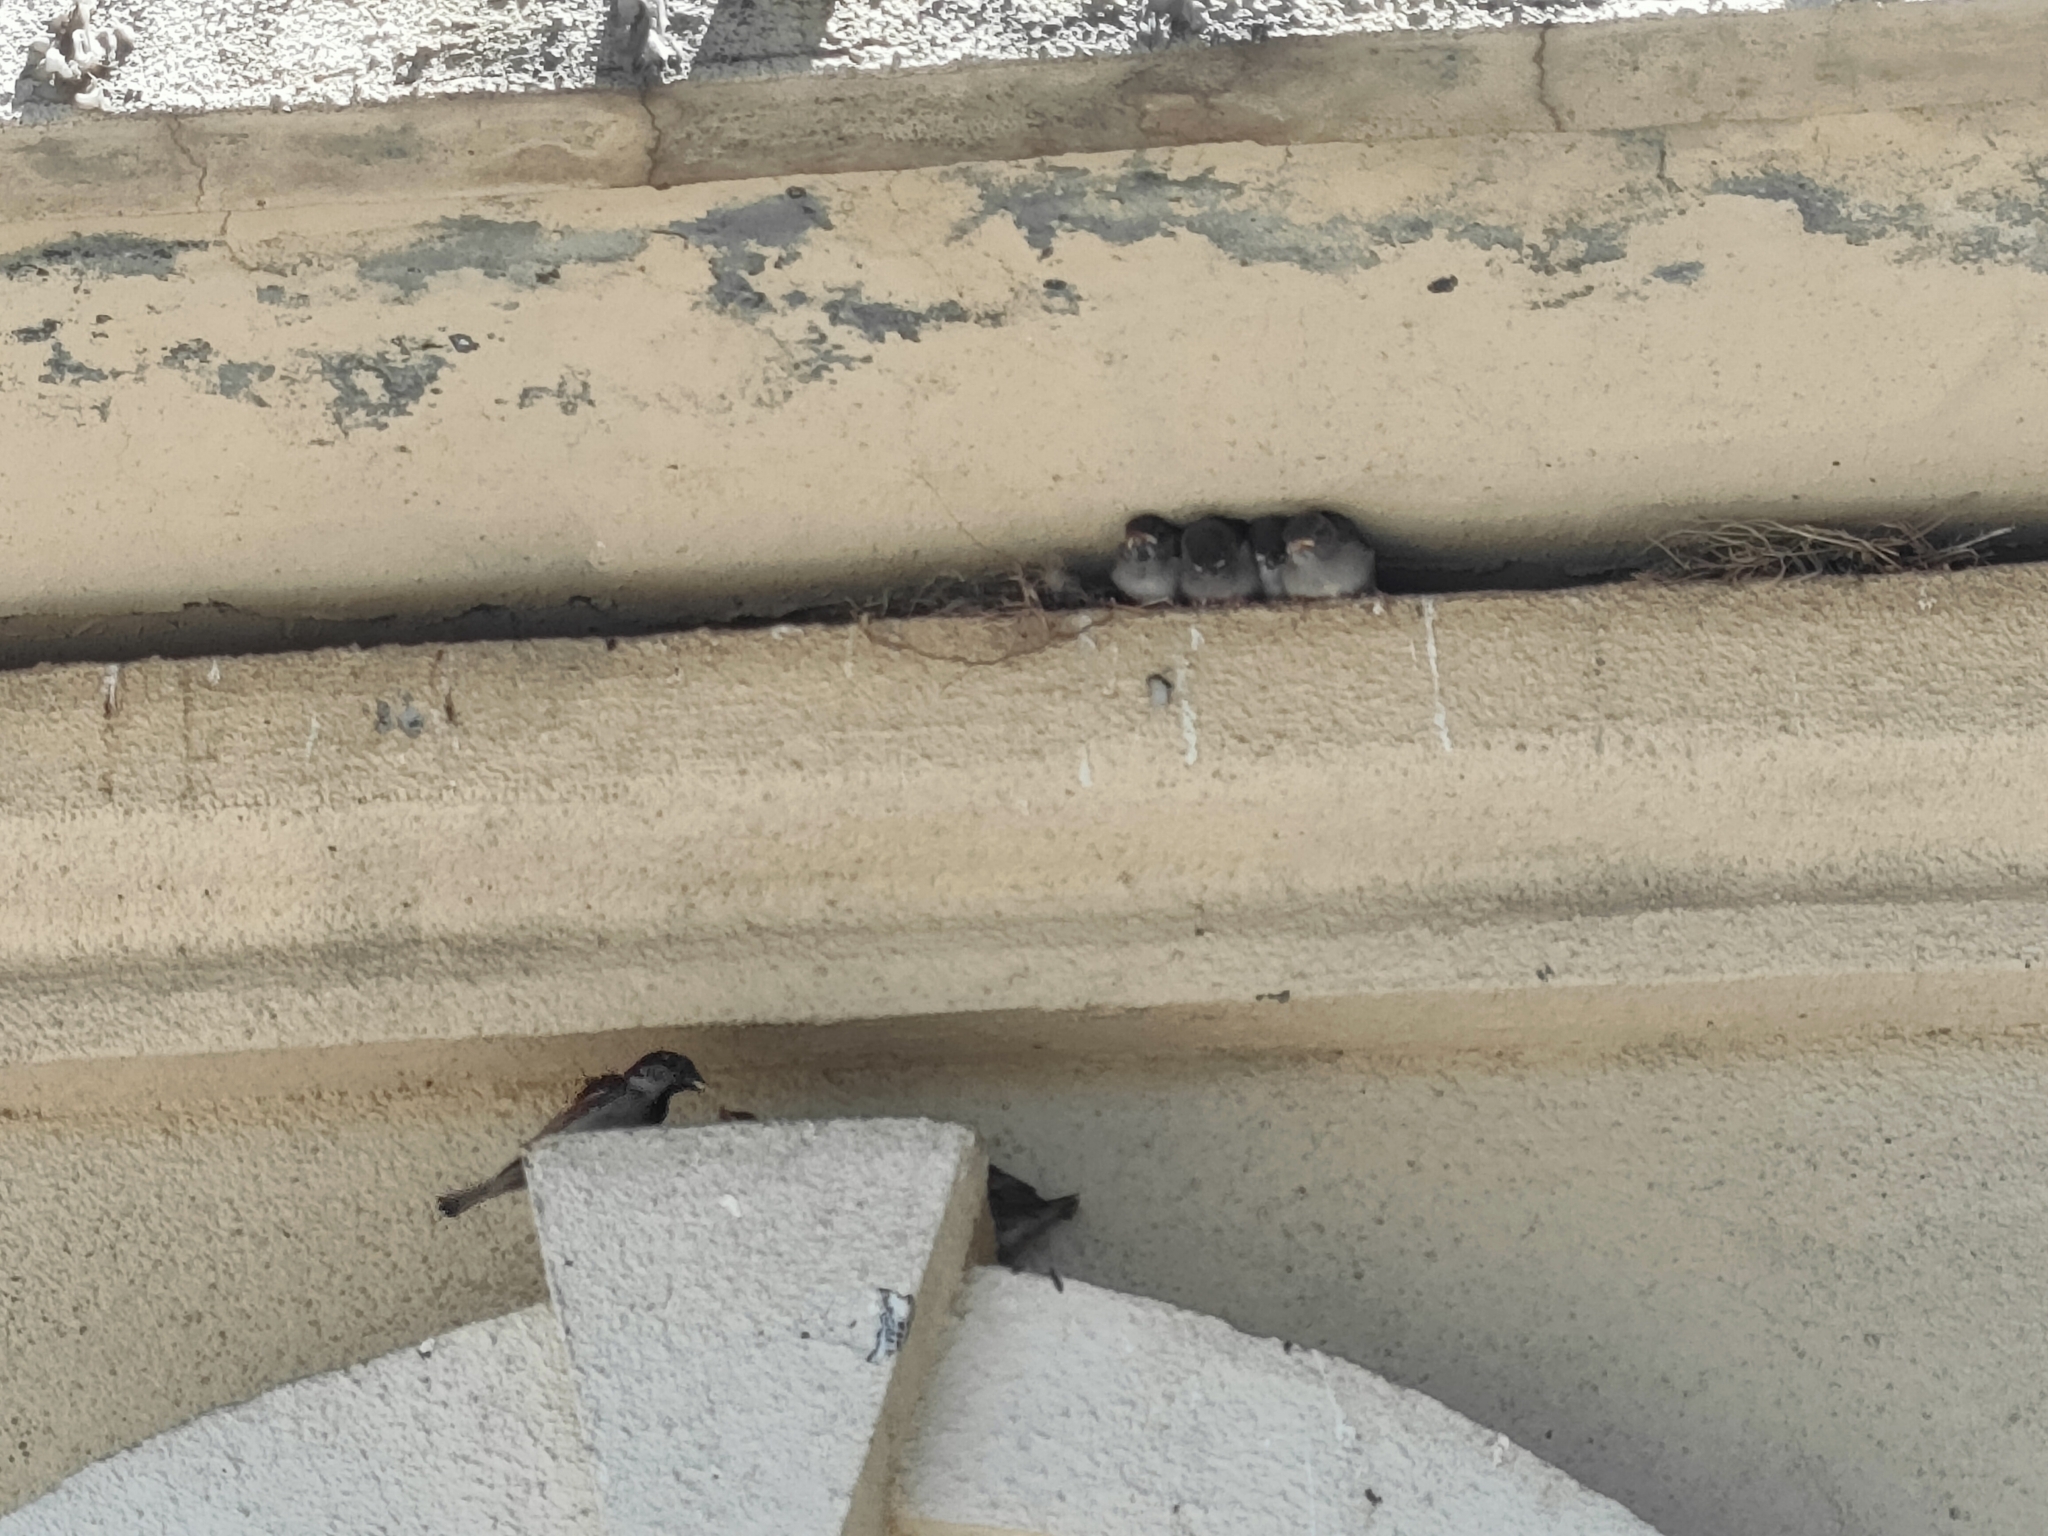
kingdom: Animalia
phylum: Chordata
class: Aves
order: Passeriformes
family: Passeridae
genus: Passer
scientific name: Passer domesticus
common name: House sparrow
